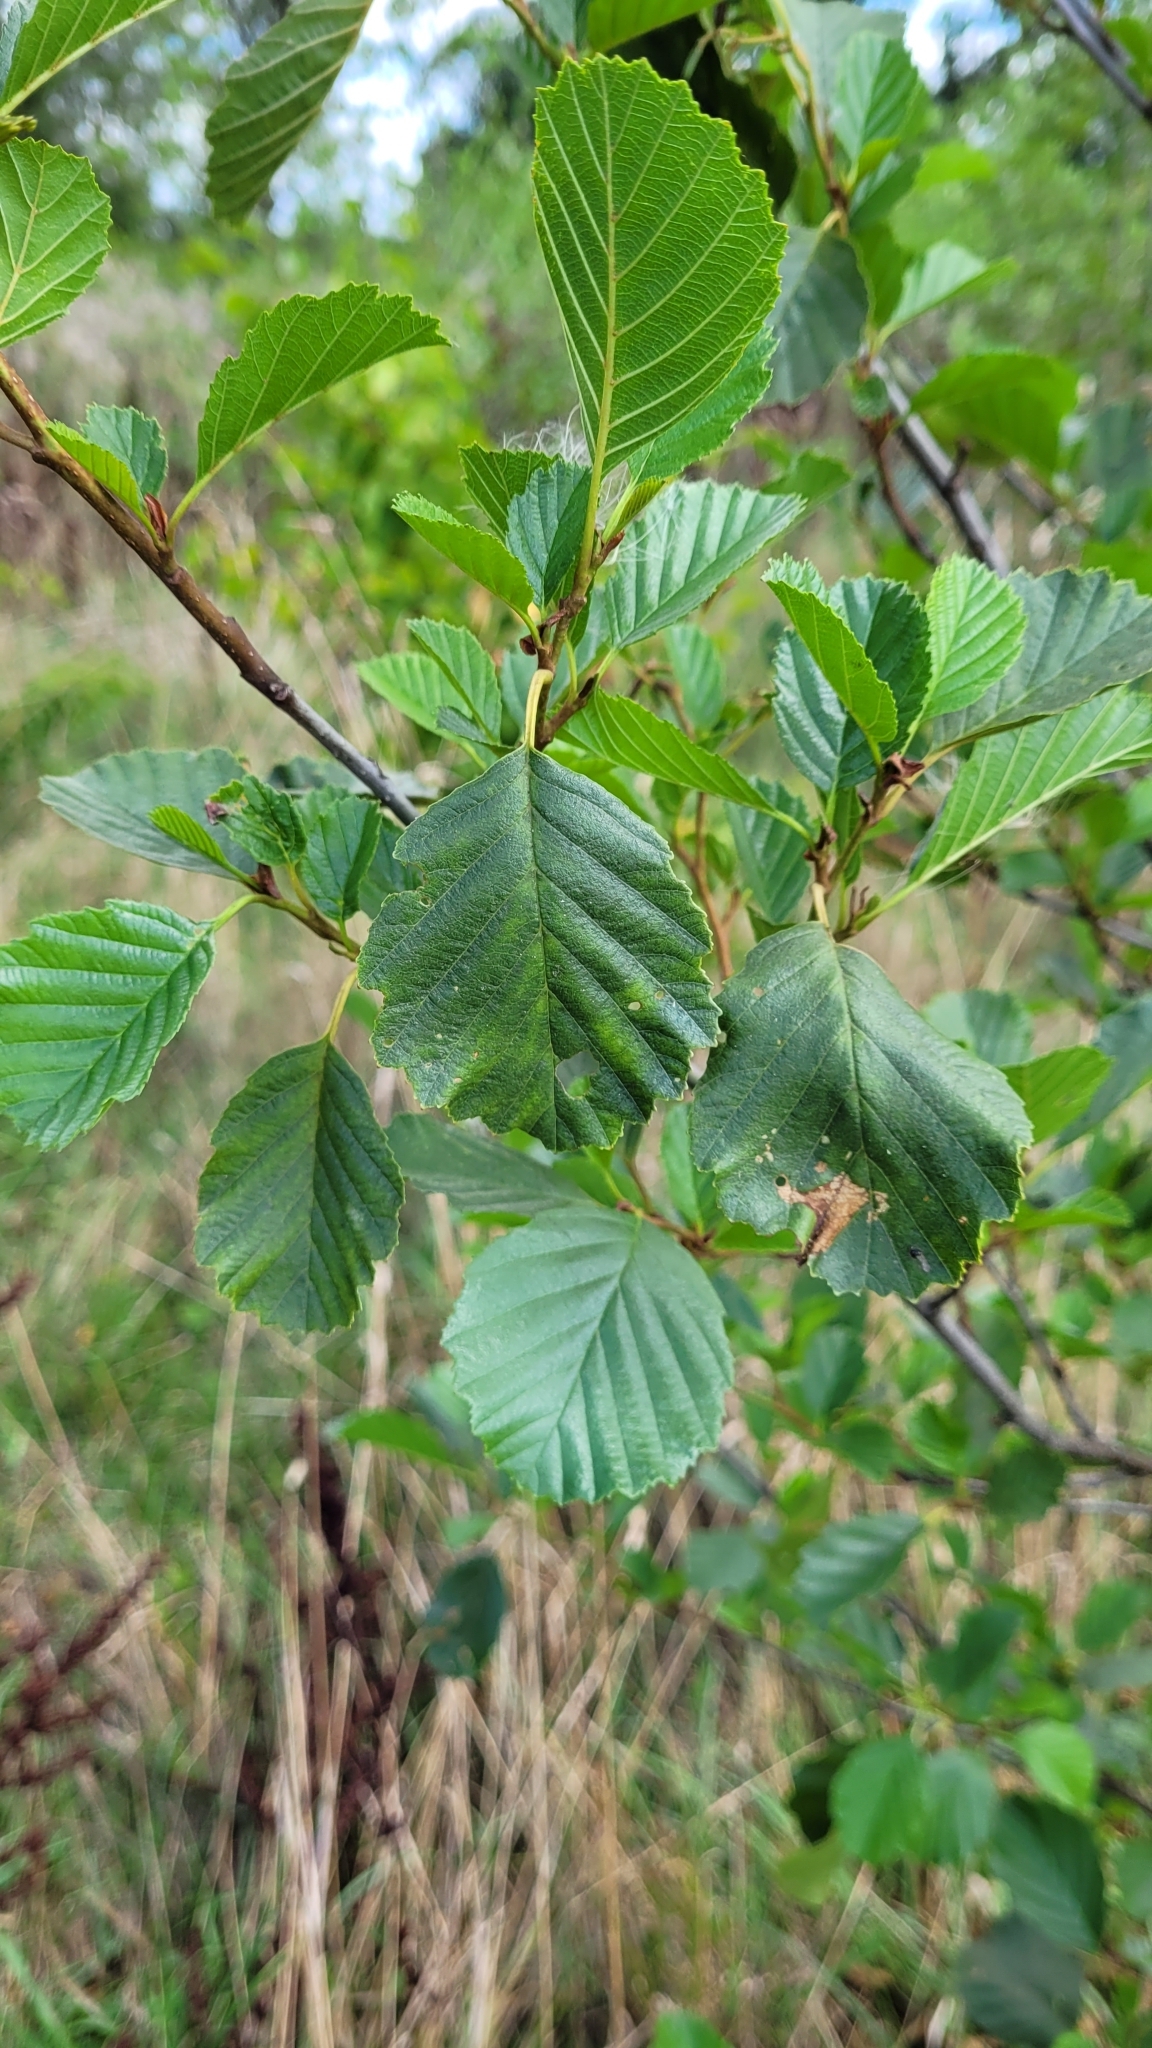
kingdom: Plantae
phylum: Tracheophyta
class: Magnoliopsida
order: Fagales
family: Betulaceae
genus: Alnus
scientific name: Alnus glutinosa
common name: Black alder
